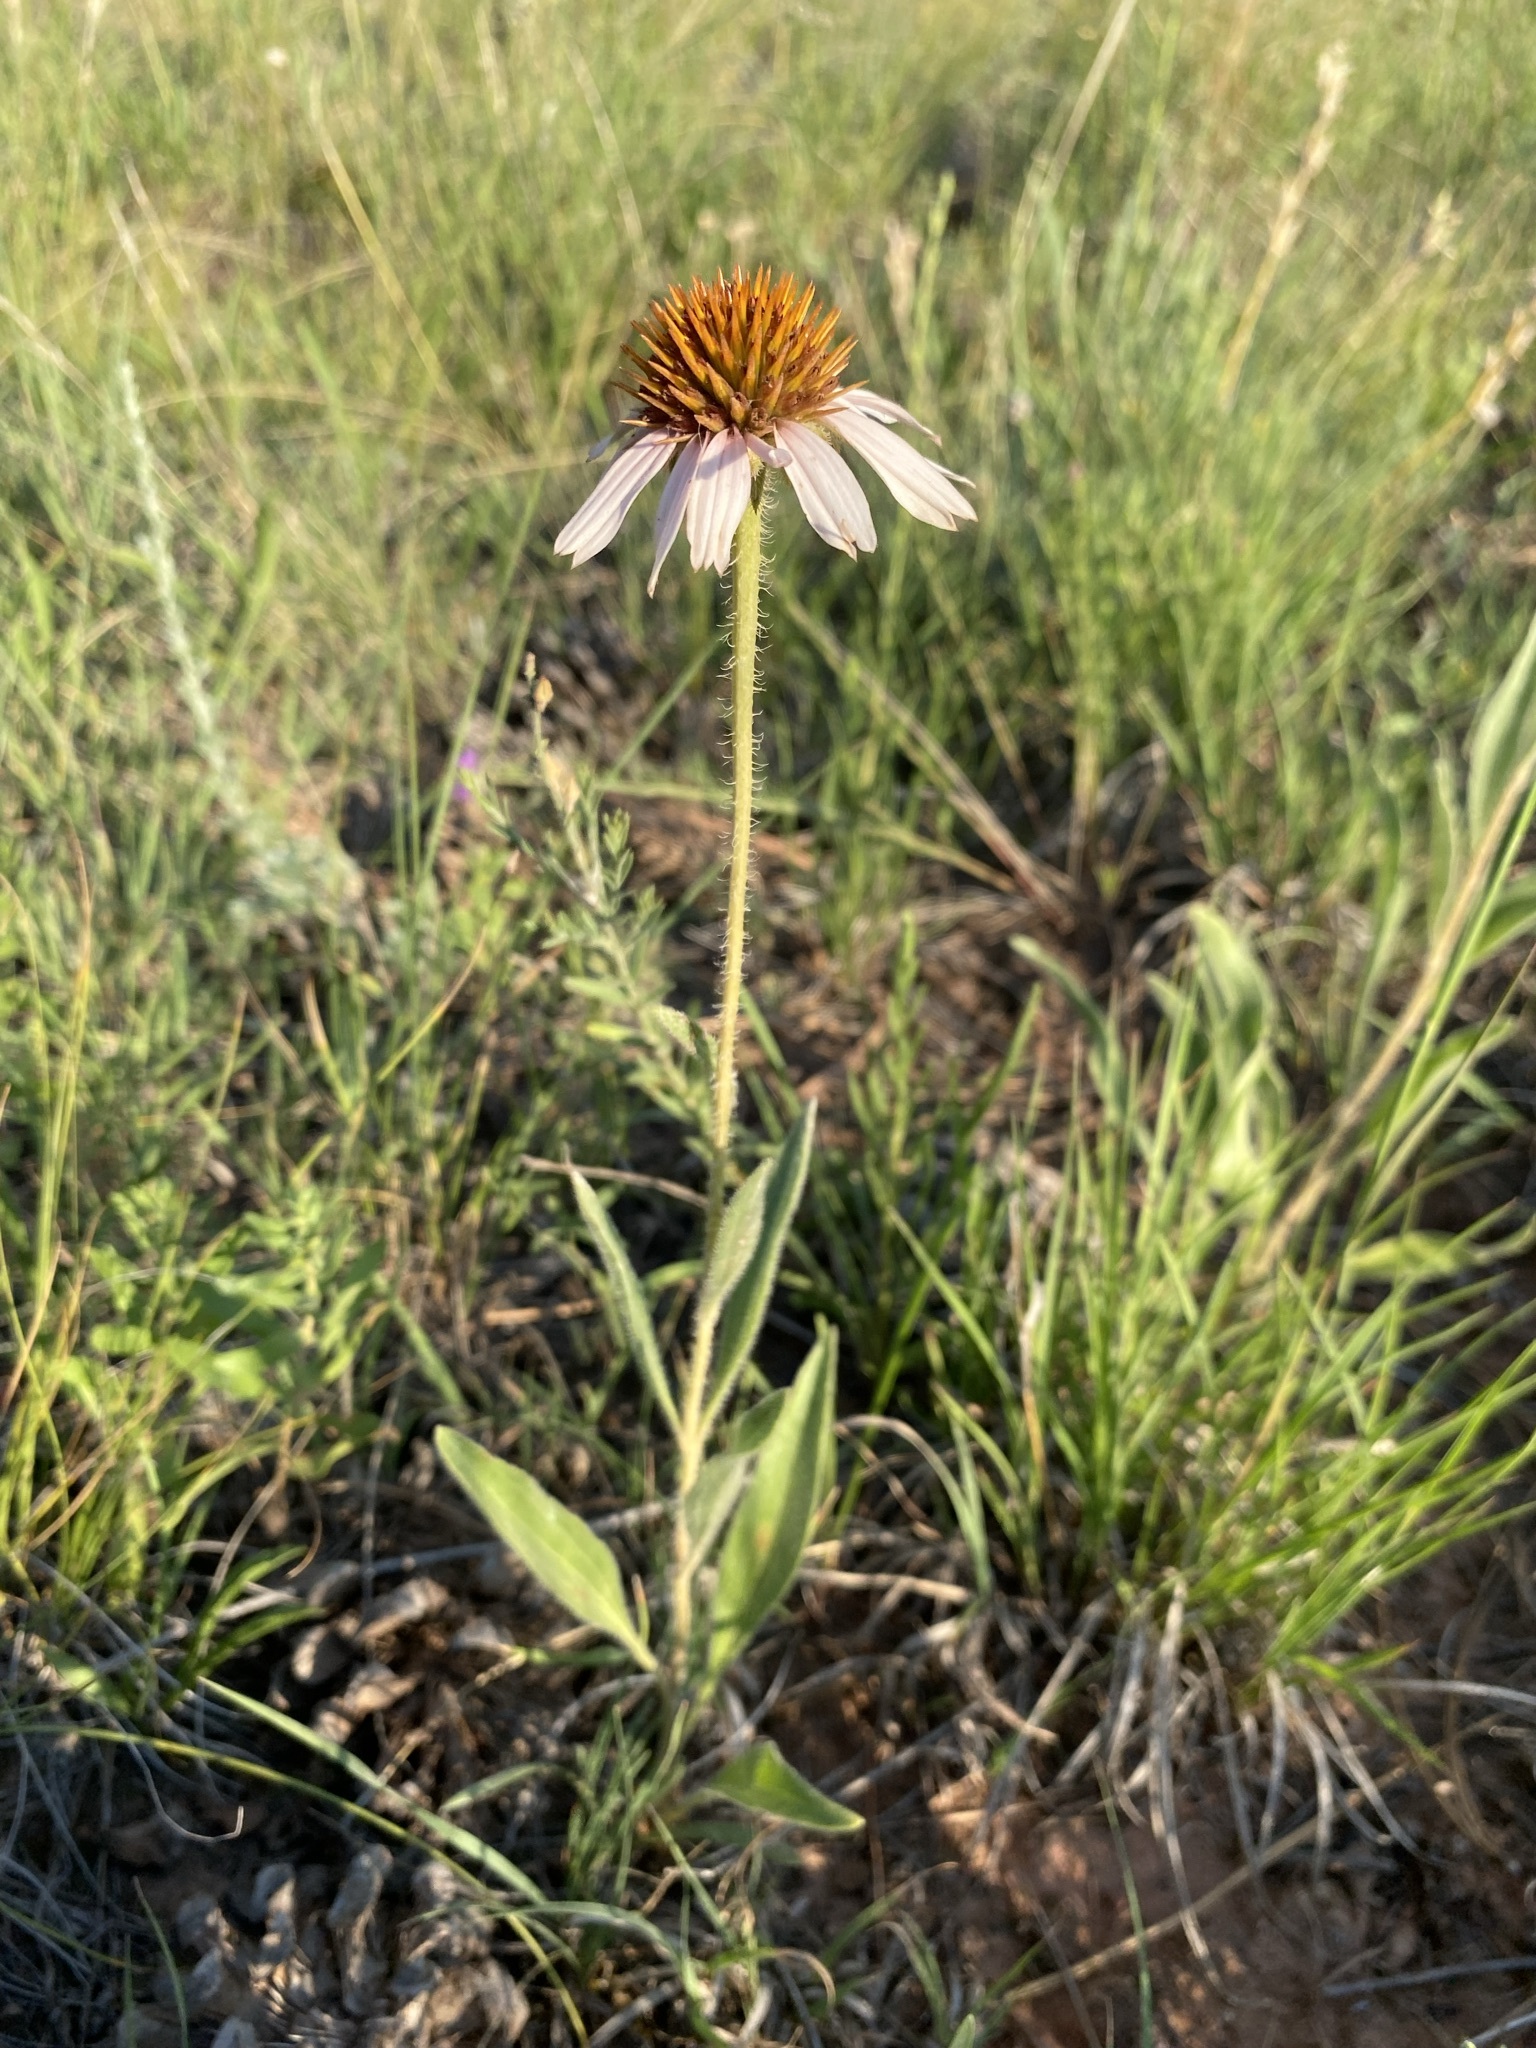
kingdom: Plantae
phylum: Tracheophyta
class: Magnoliopsida
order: Asterales
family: Asteraceae
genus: Echinacea
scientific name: Echinacea angustifolia
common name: Black-sampson echinacea
